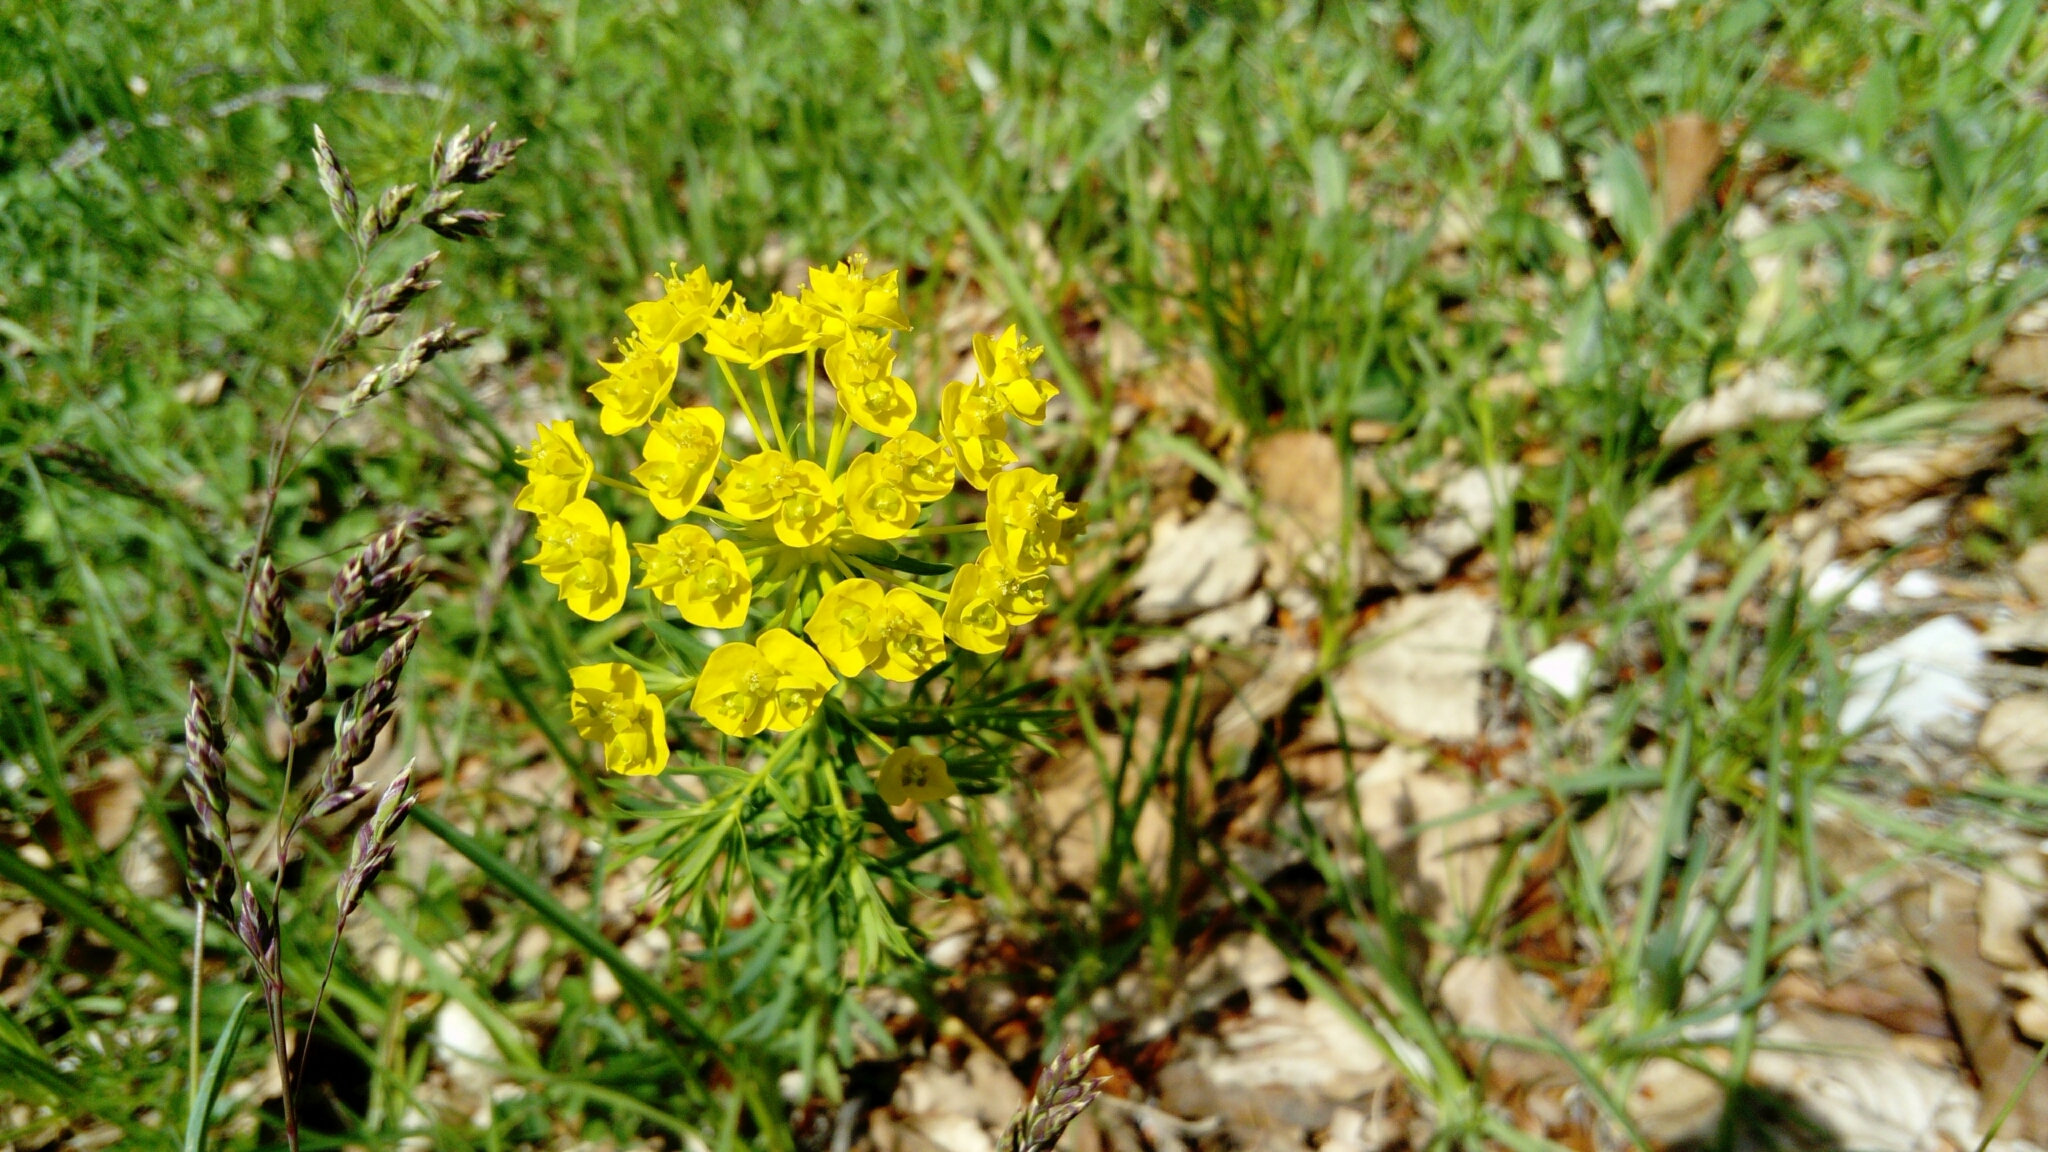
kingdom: Plantae
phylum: Tracheophyta
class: Magnoliopsida
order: Malpighiales
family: Euphorbiaceae
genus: Euphorbia
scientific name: Euphorbia cyparissias
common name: Cypress spurge
